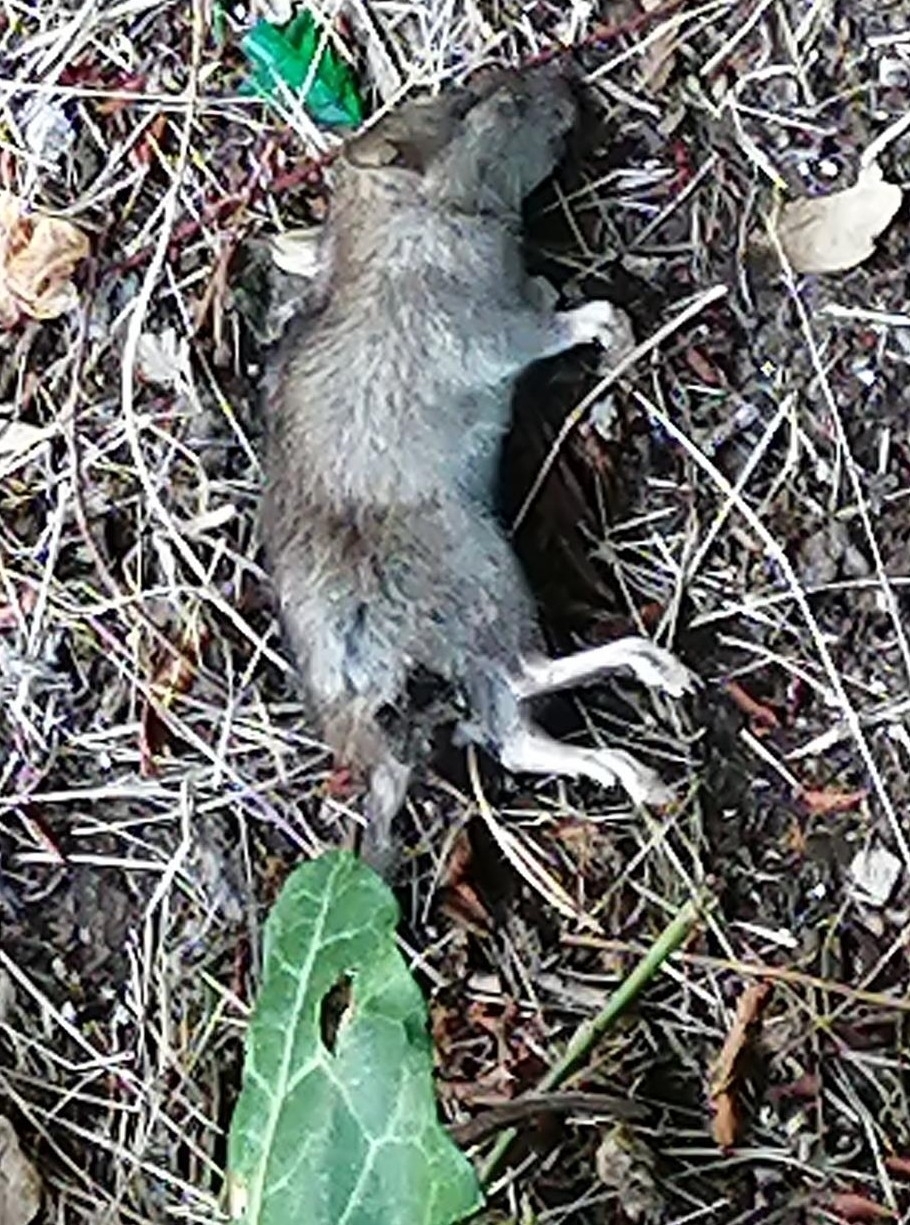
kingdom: Animalia
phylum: Chordata
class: Mammalia
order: Rodentia
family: Muridae
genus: Rattus
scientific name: Rattus norvegicus
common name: Brown rat
